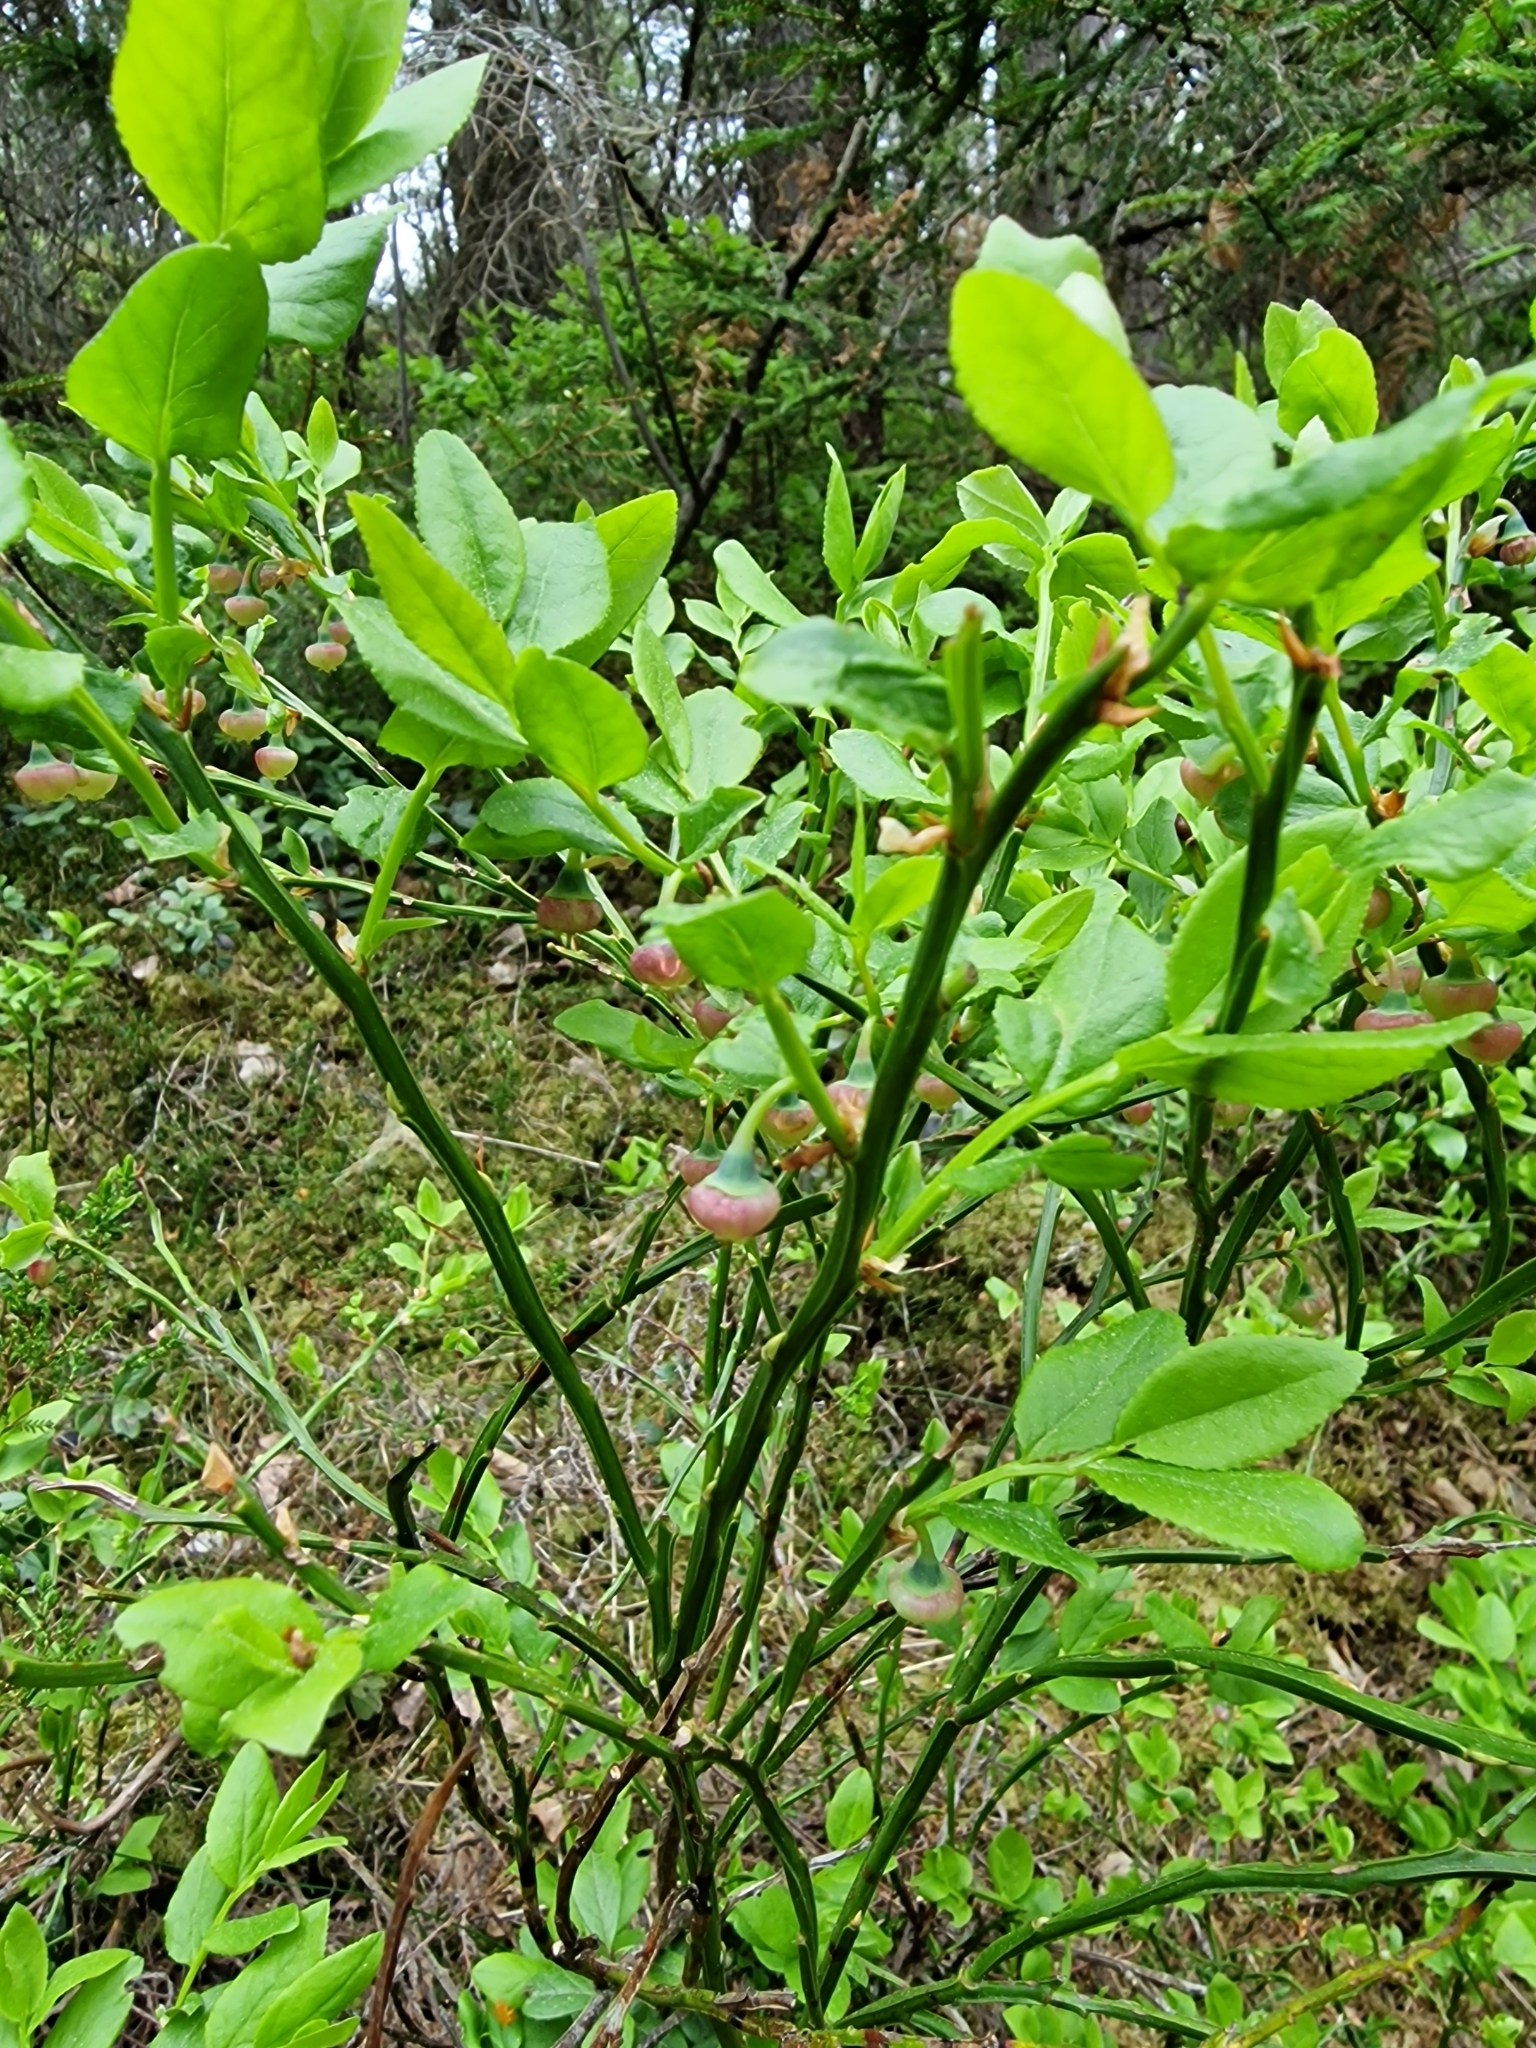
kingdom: Plantae
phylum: Tracheophyta
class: Magnoliopsida
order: Ericales
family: Ericaceae
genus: Vaccinium
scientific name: Vaccinium myrtillus
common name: Bilberry
